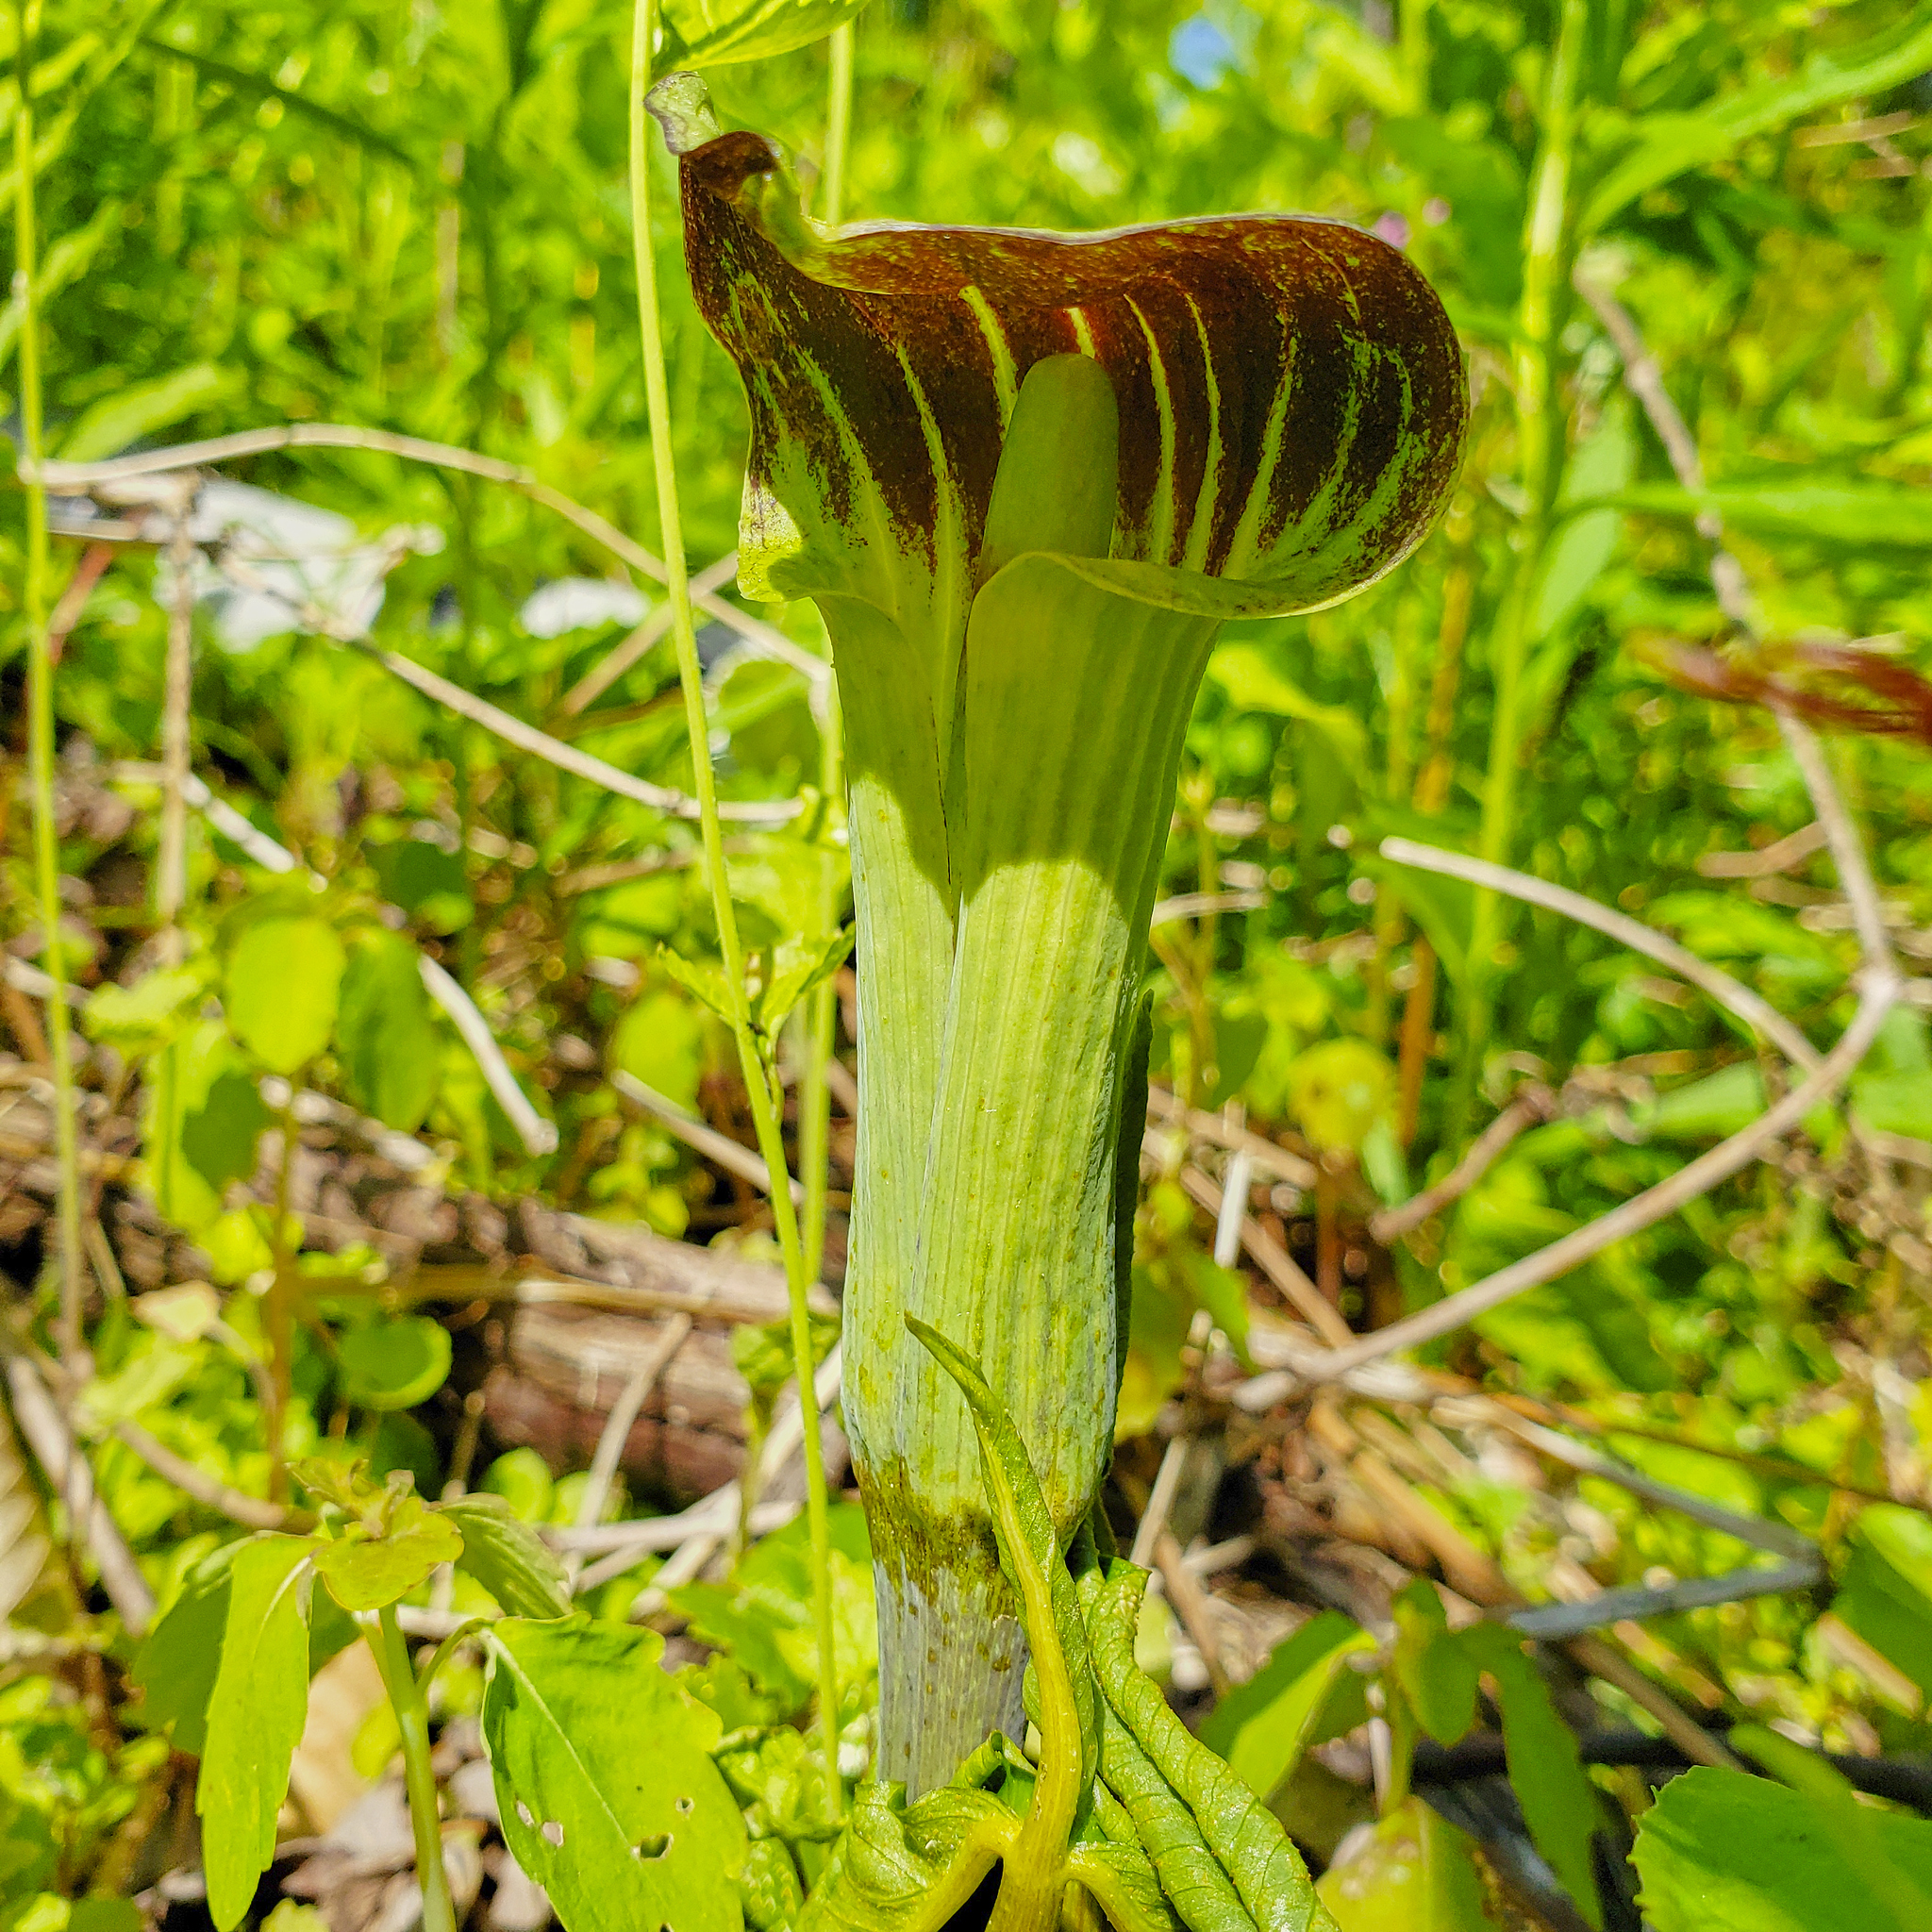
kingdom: Plantae
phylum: Tracheophyta
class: Liliopsida
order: Alismatales
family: Araceae
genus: Arisaema
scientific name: Arisaema triphyllum
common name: Jack-in-the-pulpit
